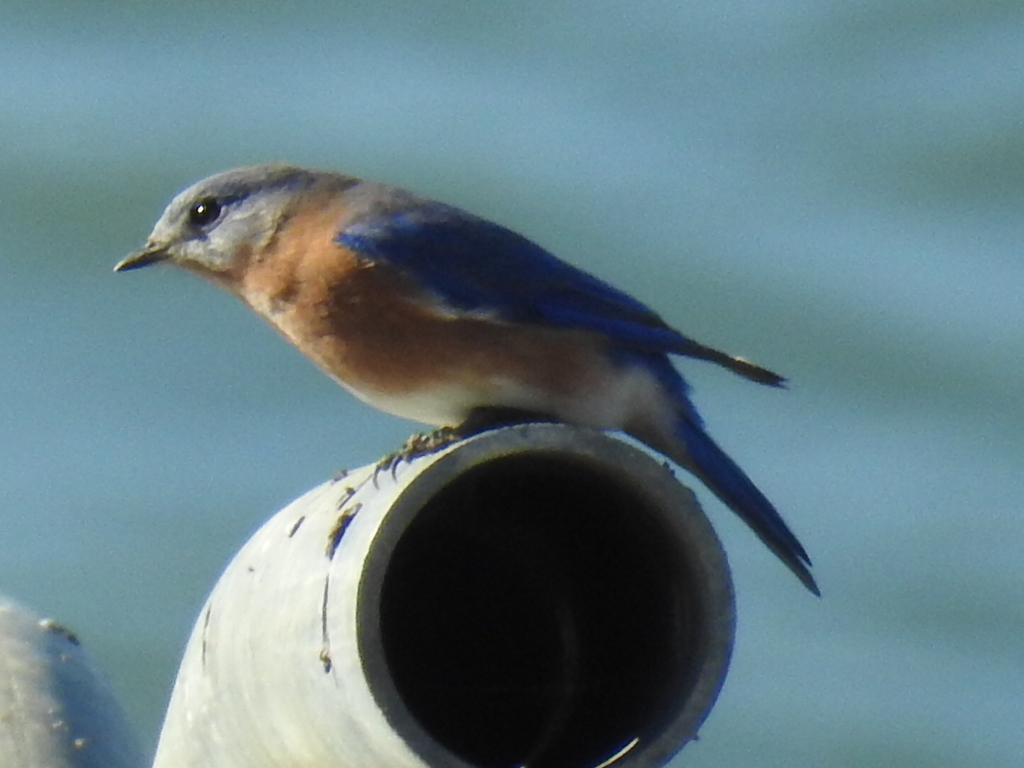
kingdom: Animalia
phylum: Chordata
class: Aves
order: Passeriformes
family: Turdidae
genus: Sialia
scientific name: Sialia sialis
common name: Eastern bluebird
